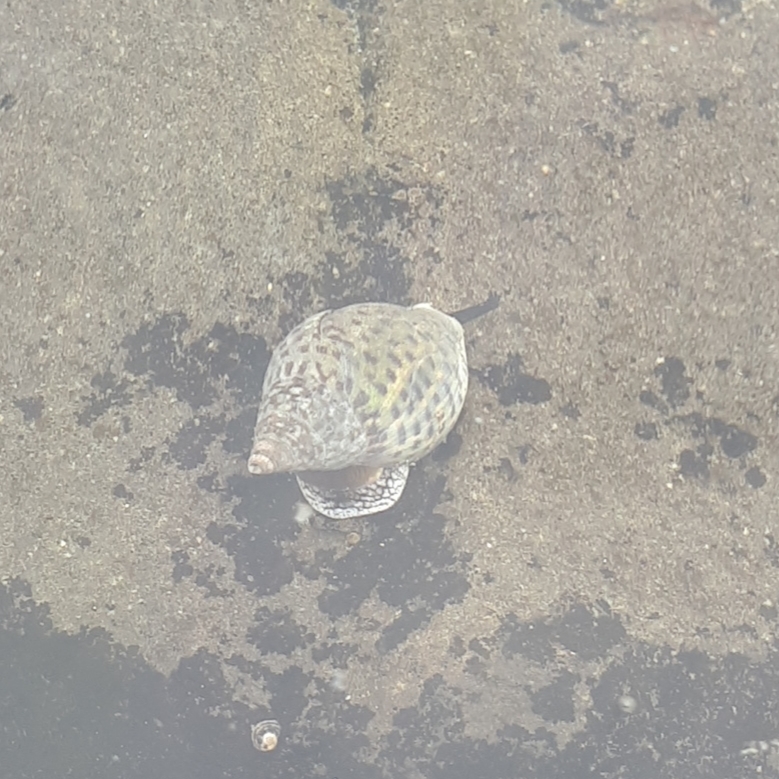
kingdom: Animalia
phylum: Mollusca
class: Gastropoda
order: Neogastropoda
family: Cominellidae
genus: Cominella
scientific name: Cominella maculosa
